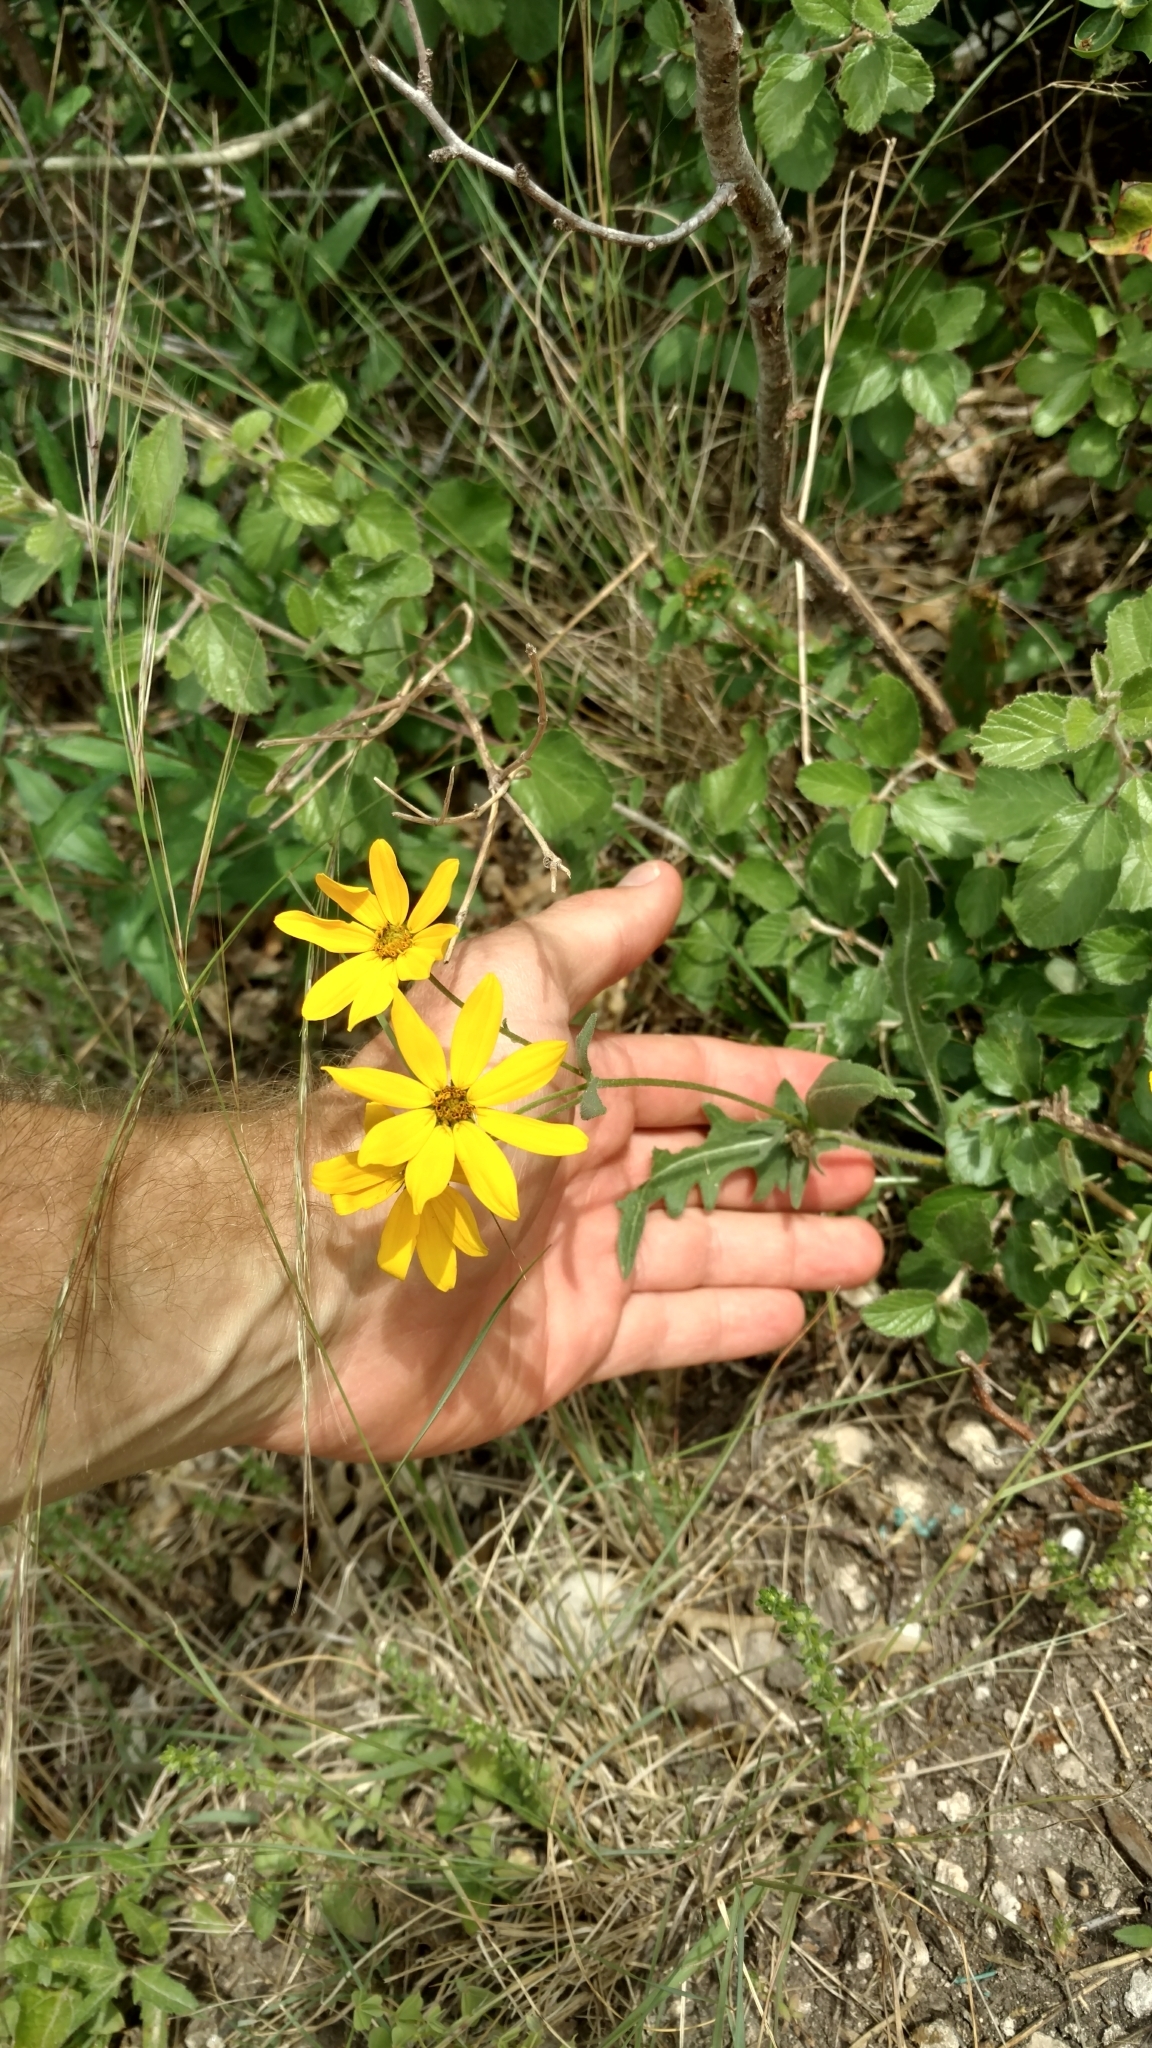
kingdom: Plantae
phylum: Tracheophyta
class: Magnoliopsida
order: Asterales
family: Asteraceae
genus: Engelmannia
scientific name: Engelmannia peristenia
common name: Engelmann's daisy
